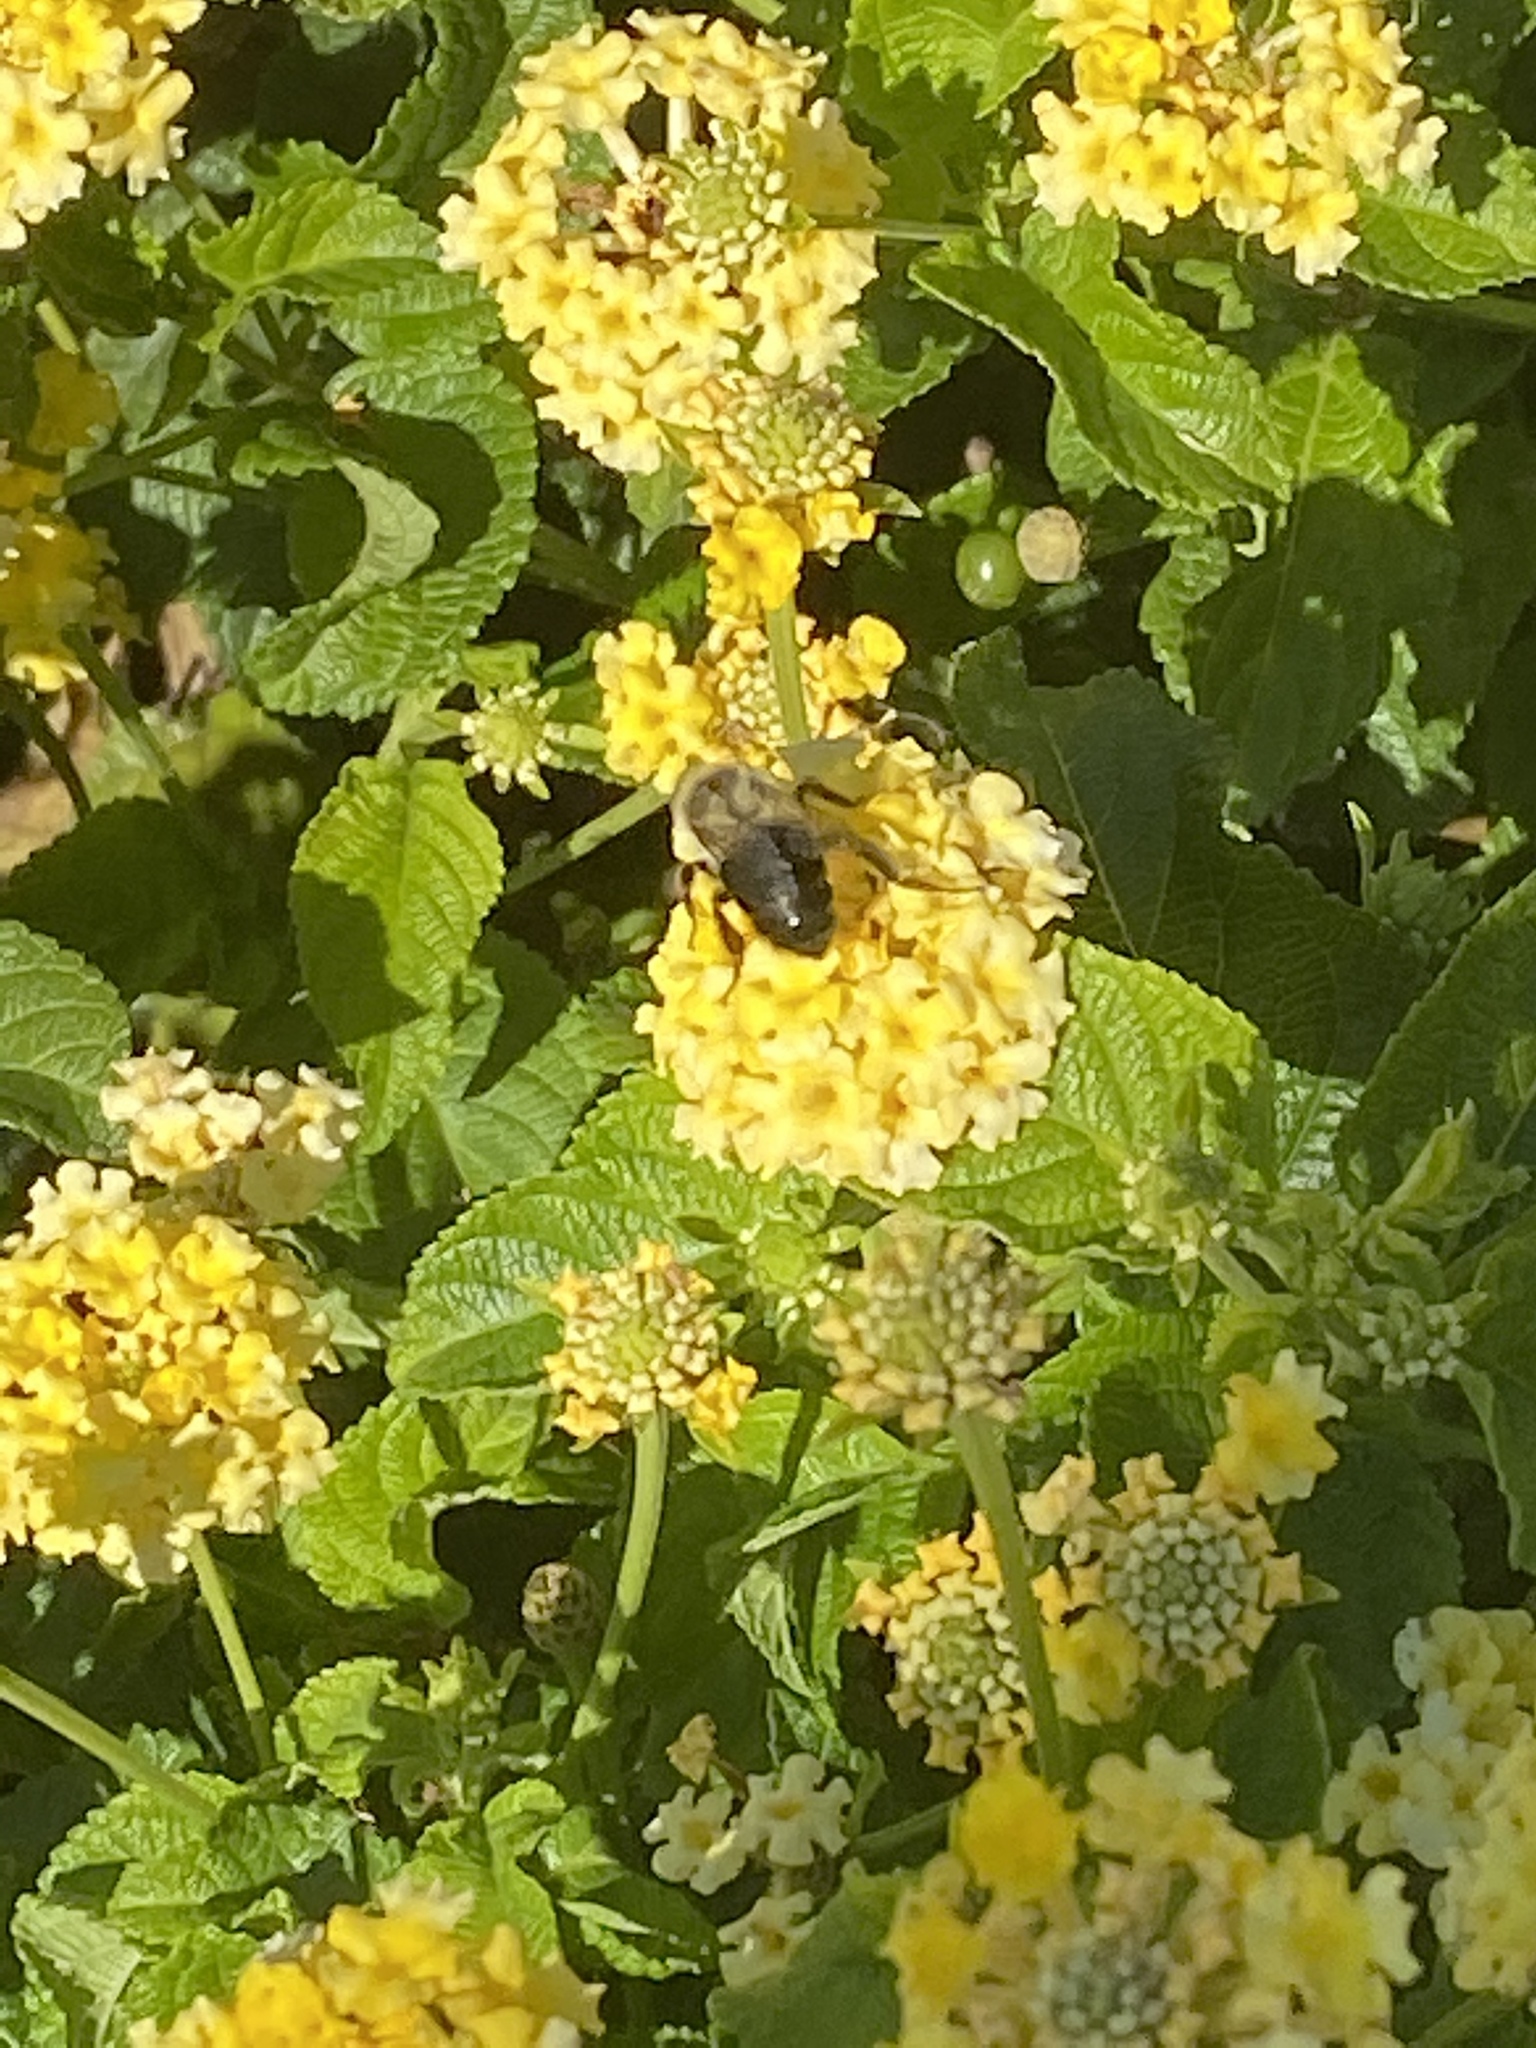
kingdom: Animalia
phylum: Arthropoda
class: Insecta
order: Hymenoptera
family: Apidae
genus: Bombus
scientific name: Bombus impatiens
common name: Common eastern bumble bee
